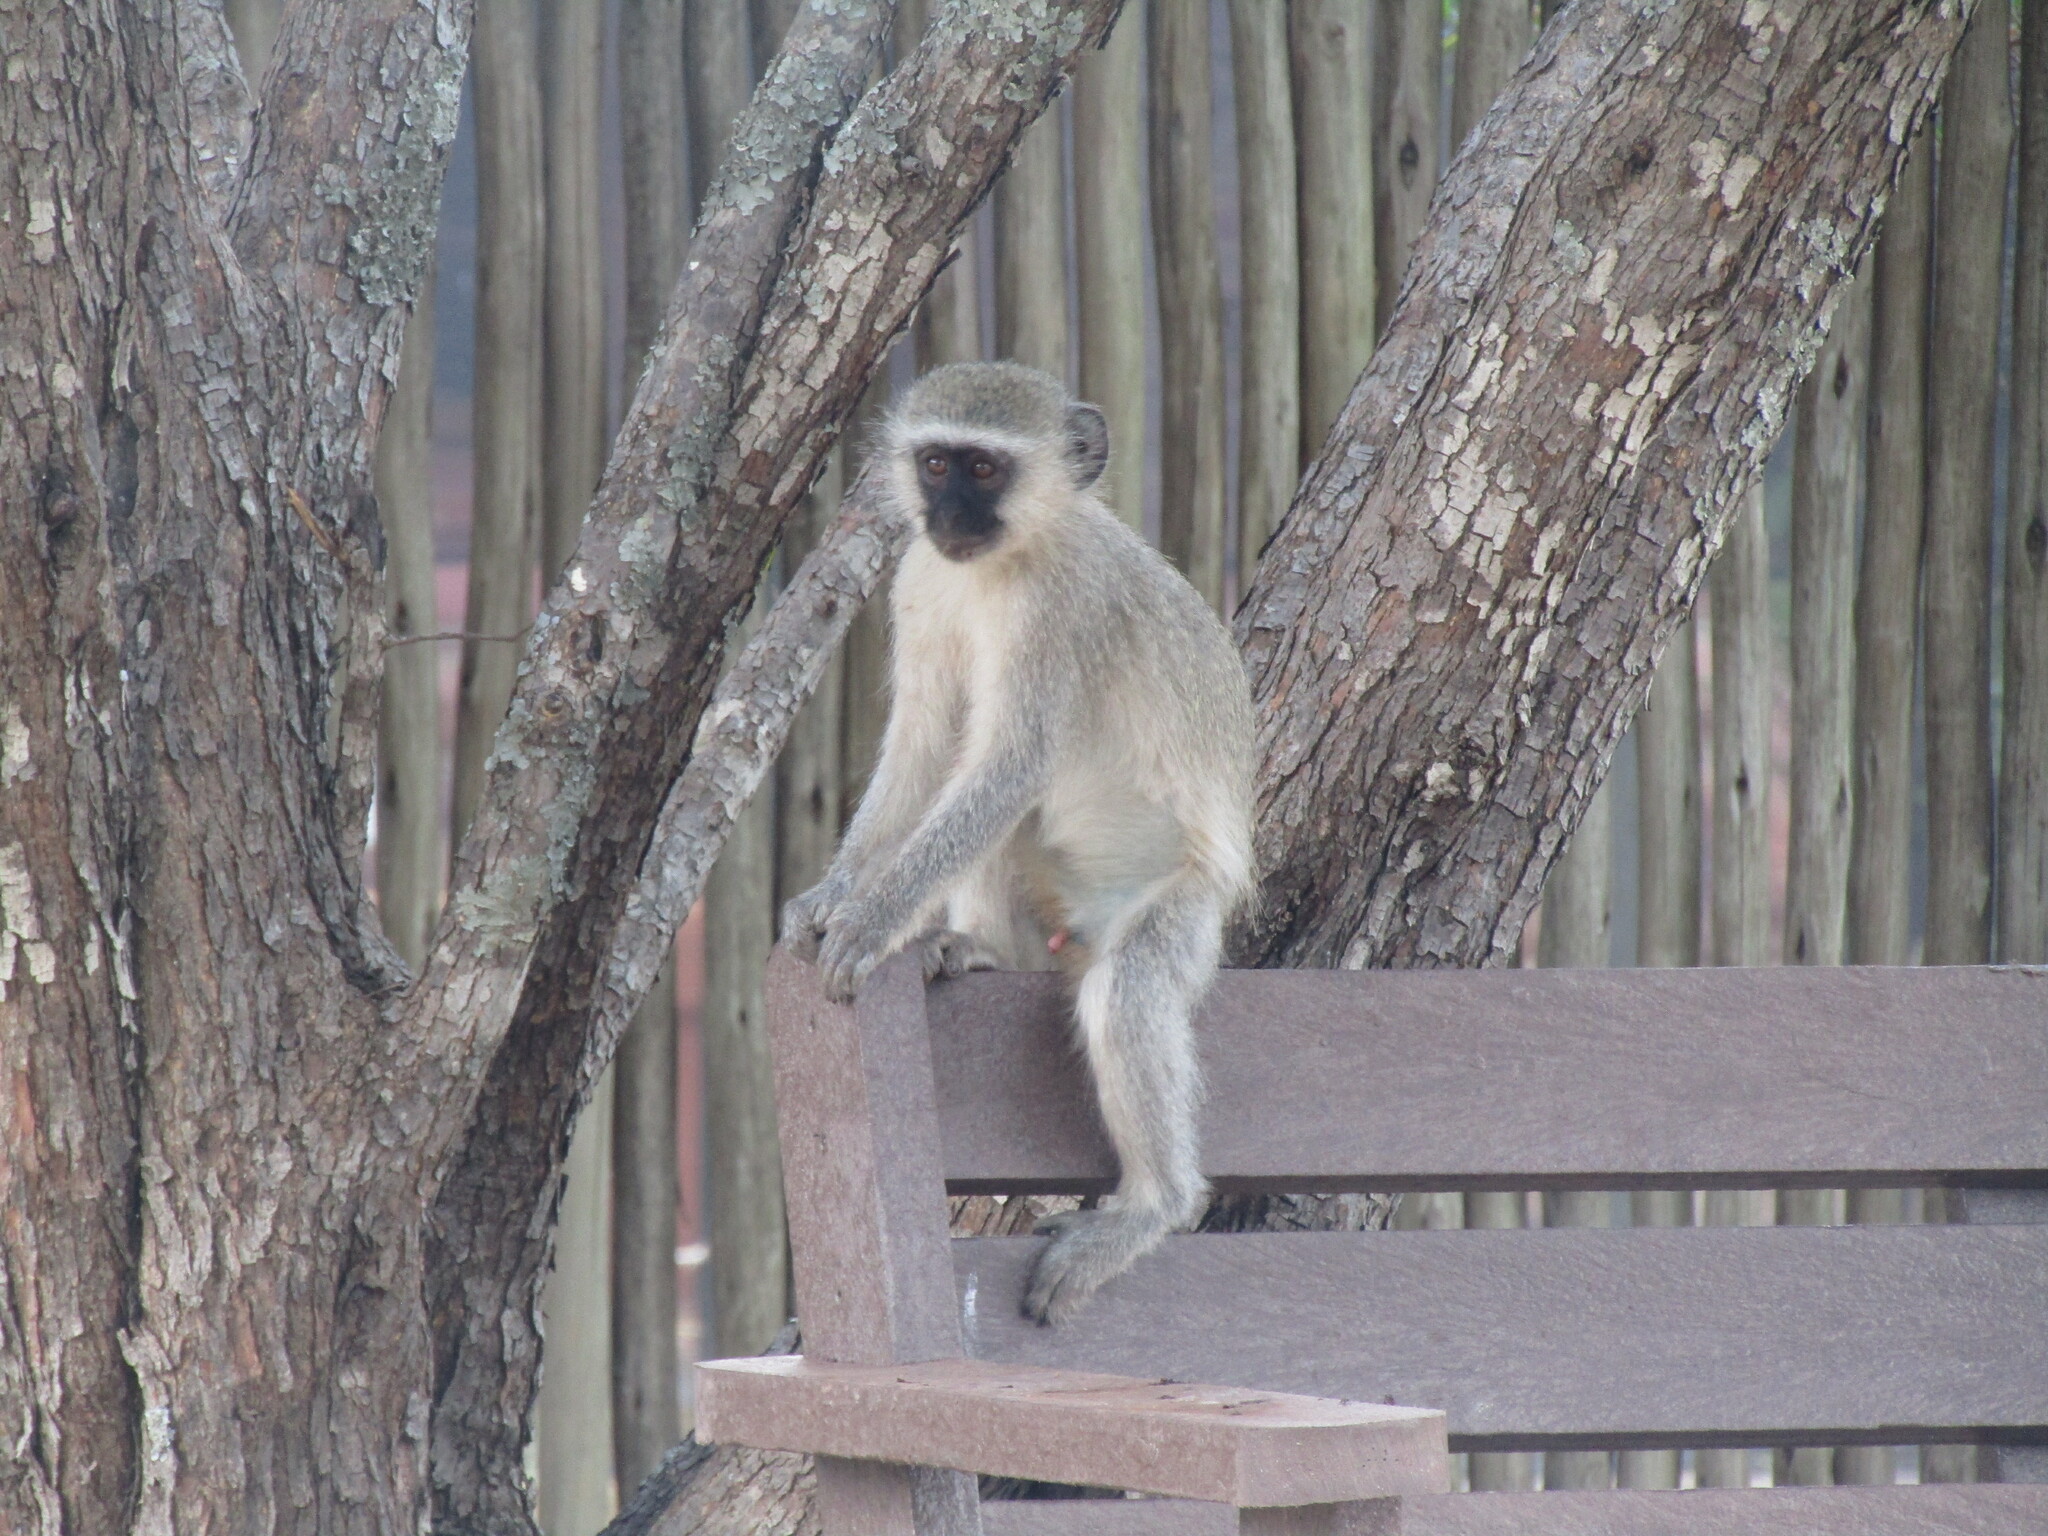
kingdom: Animalia
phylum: Chordata
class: Mammalia
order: Primates
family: Cercopithecidae
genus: Chlorocebus
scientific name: Chlorocebus pygerythrus
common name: Vervet monkey
